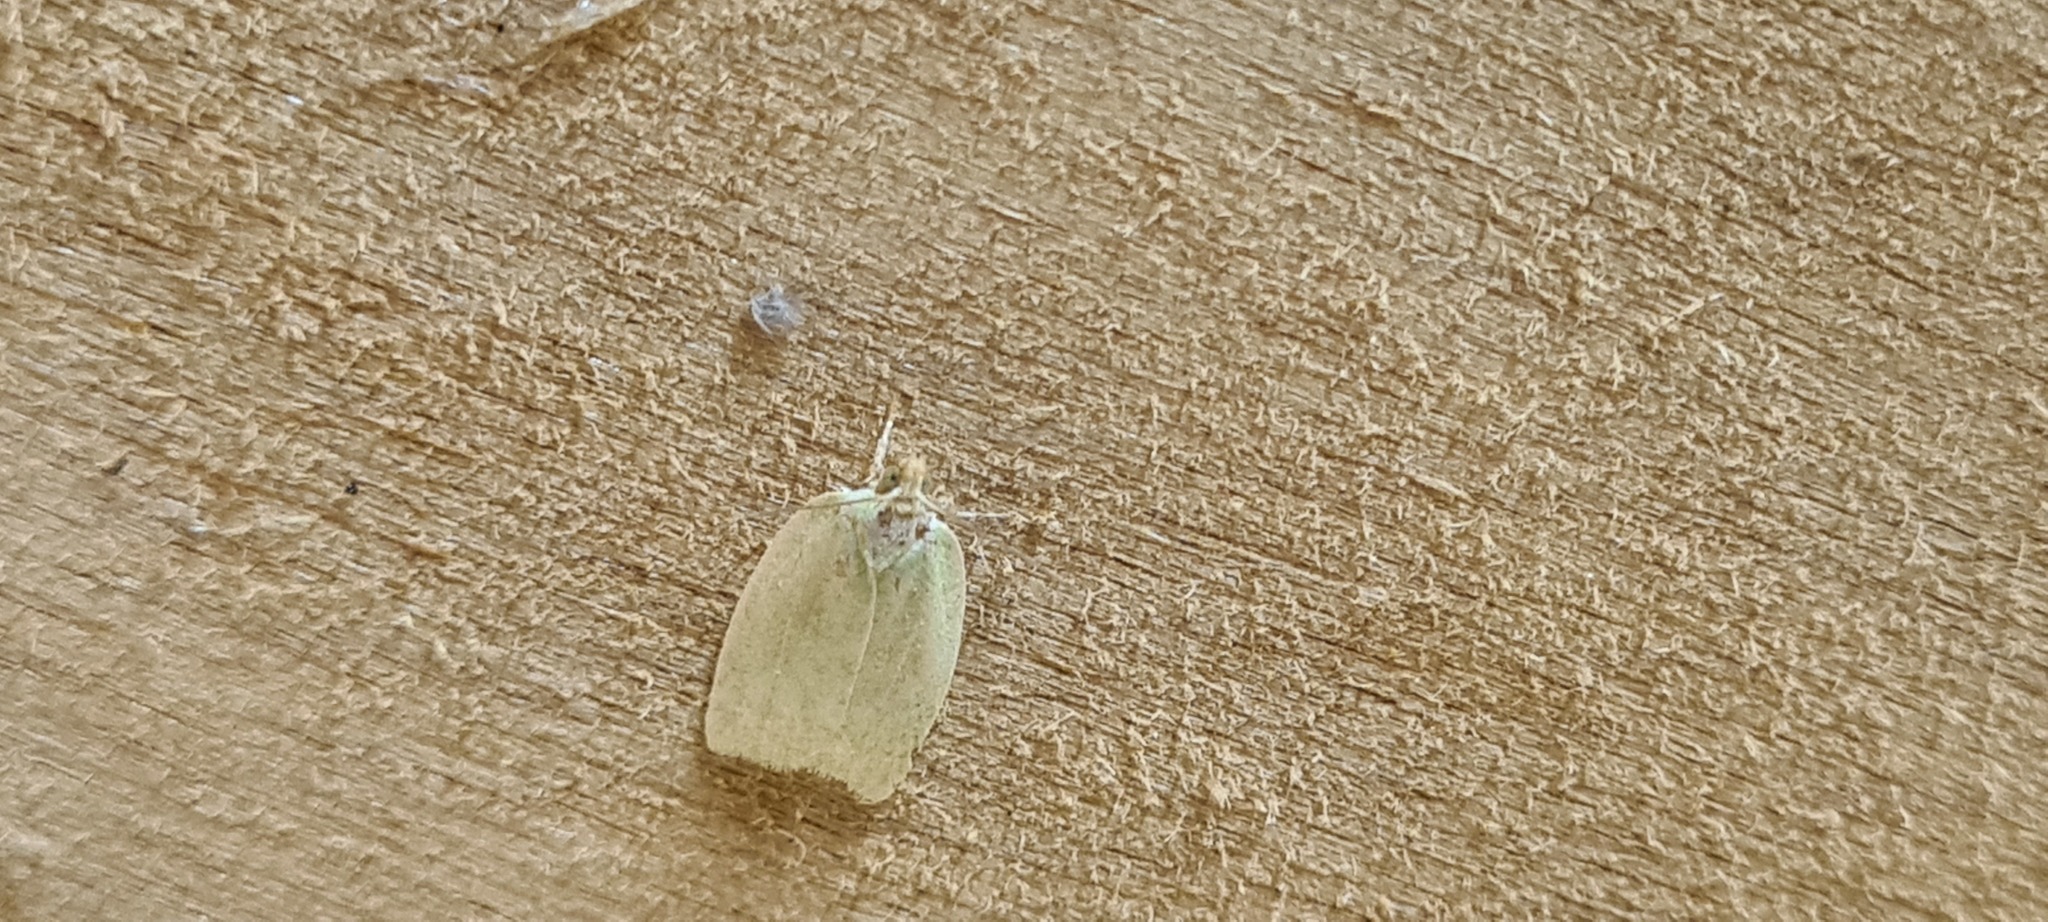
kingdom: Animalia
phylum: Arthropoda
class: Insecta
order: Lepidoptera
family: Tortricidae
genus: Tortrix
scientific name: Tortrix viridana
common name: Green oak tortrix
